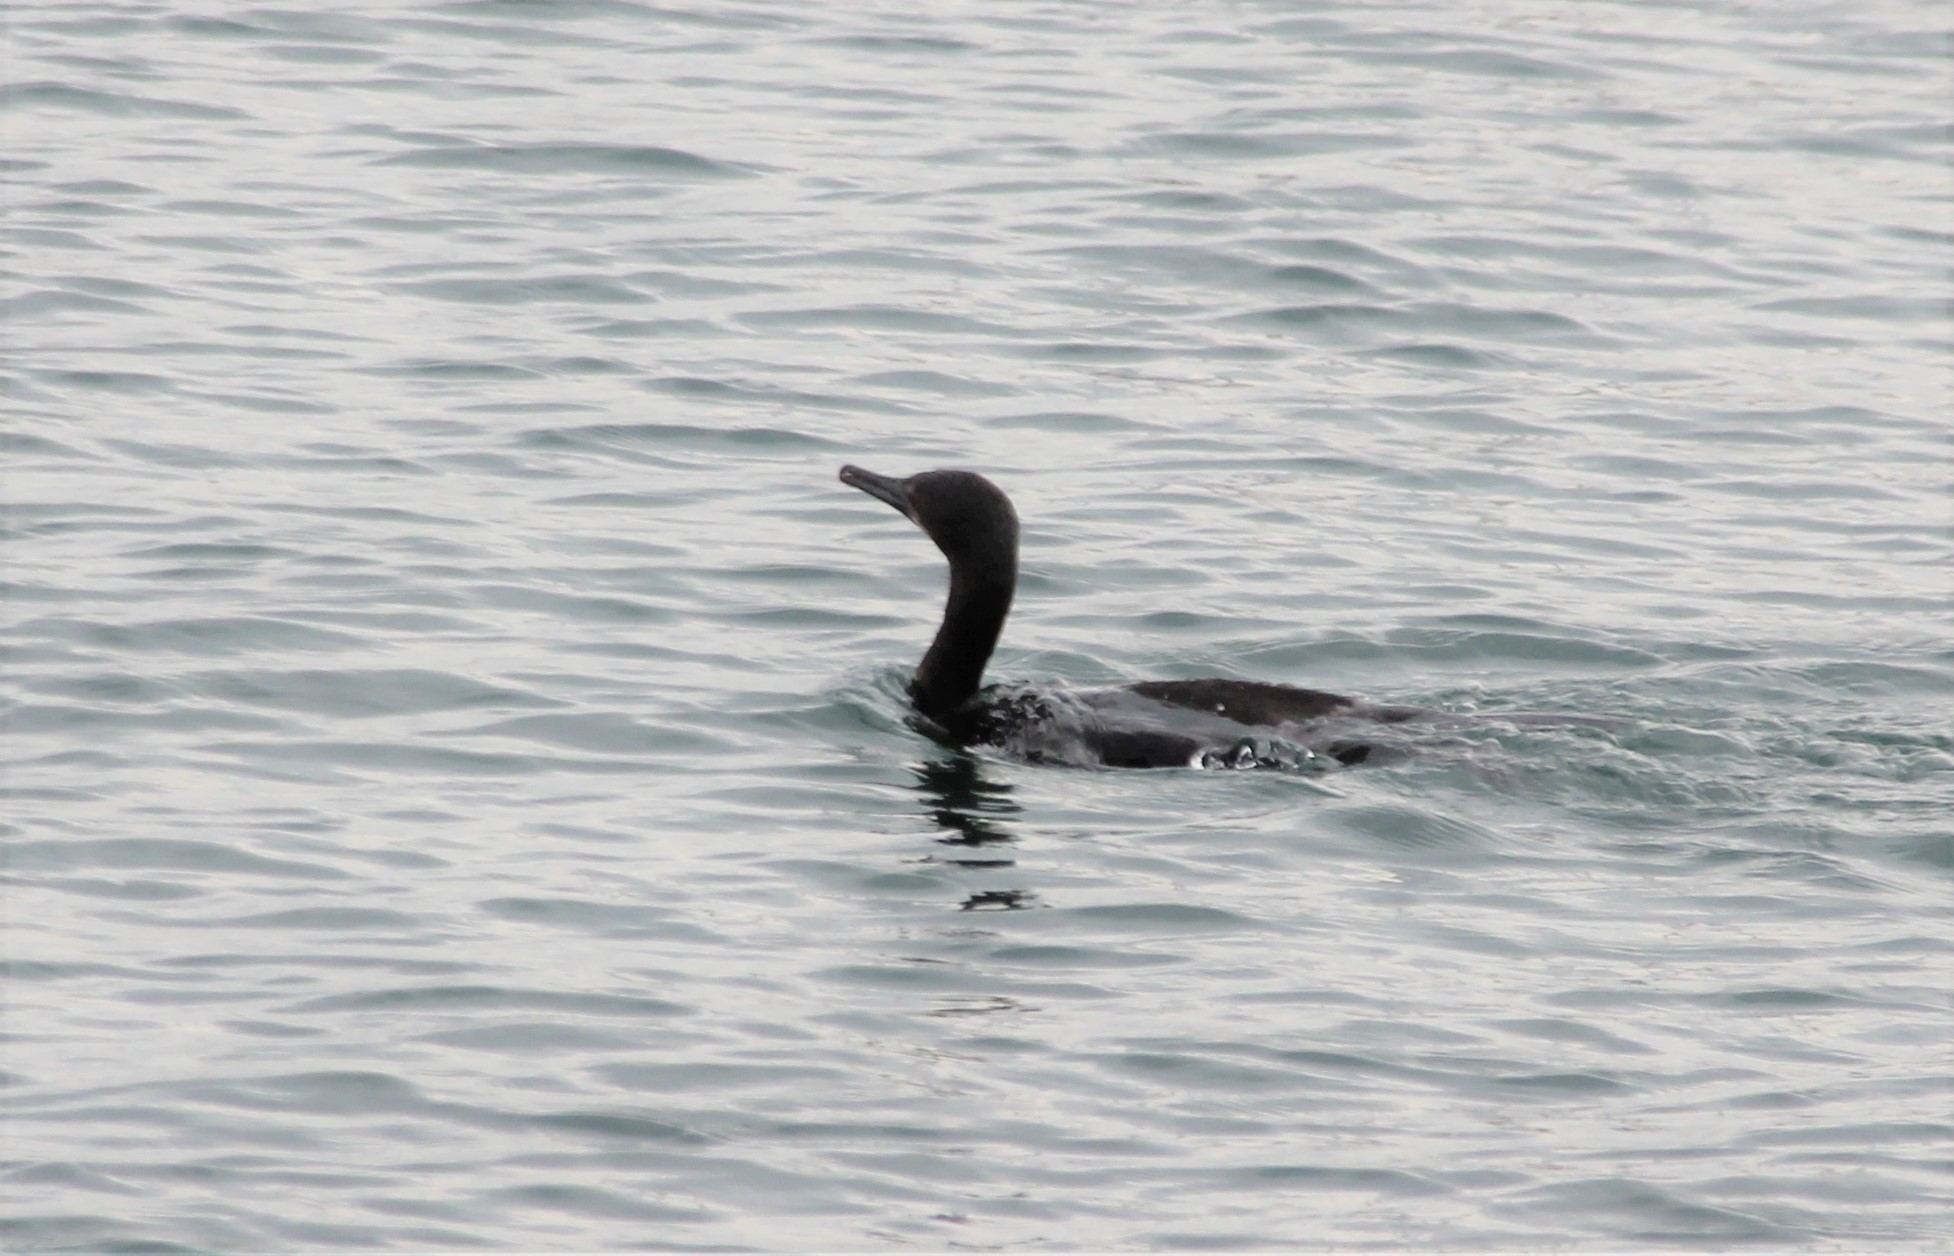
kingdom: Animalia
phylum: Chordata
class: Aves
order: Suliformes
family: Phalacrocoracidae
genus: Urile
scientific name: Urile penicillatus
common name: Brandt's cormorant
